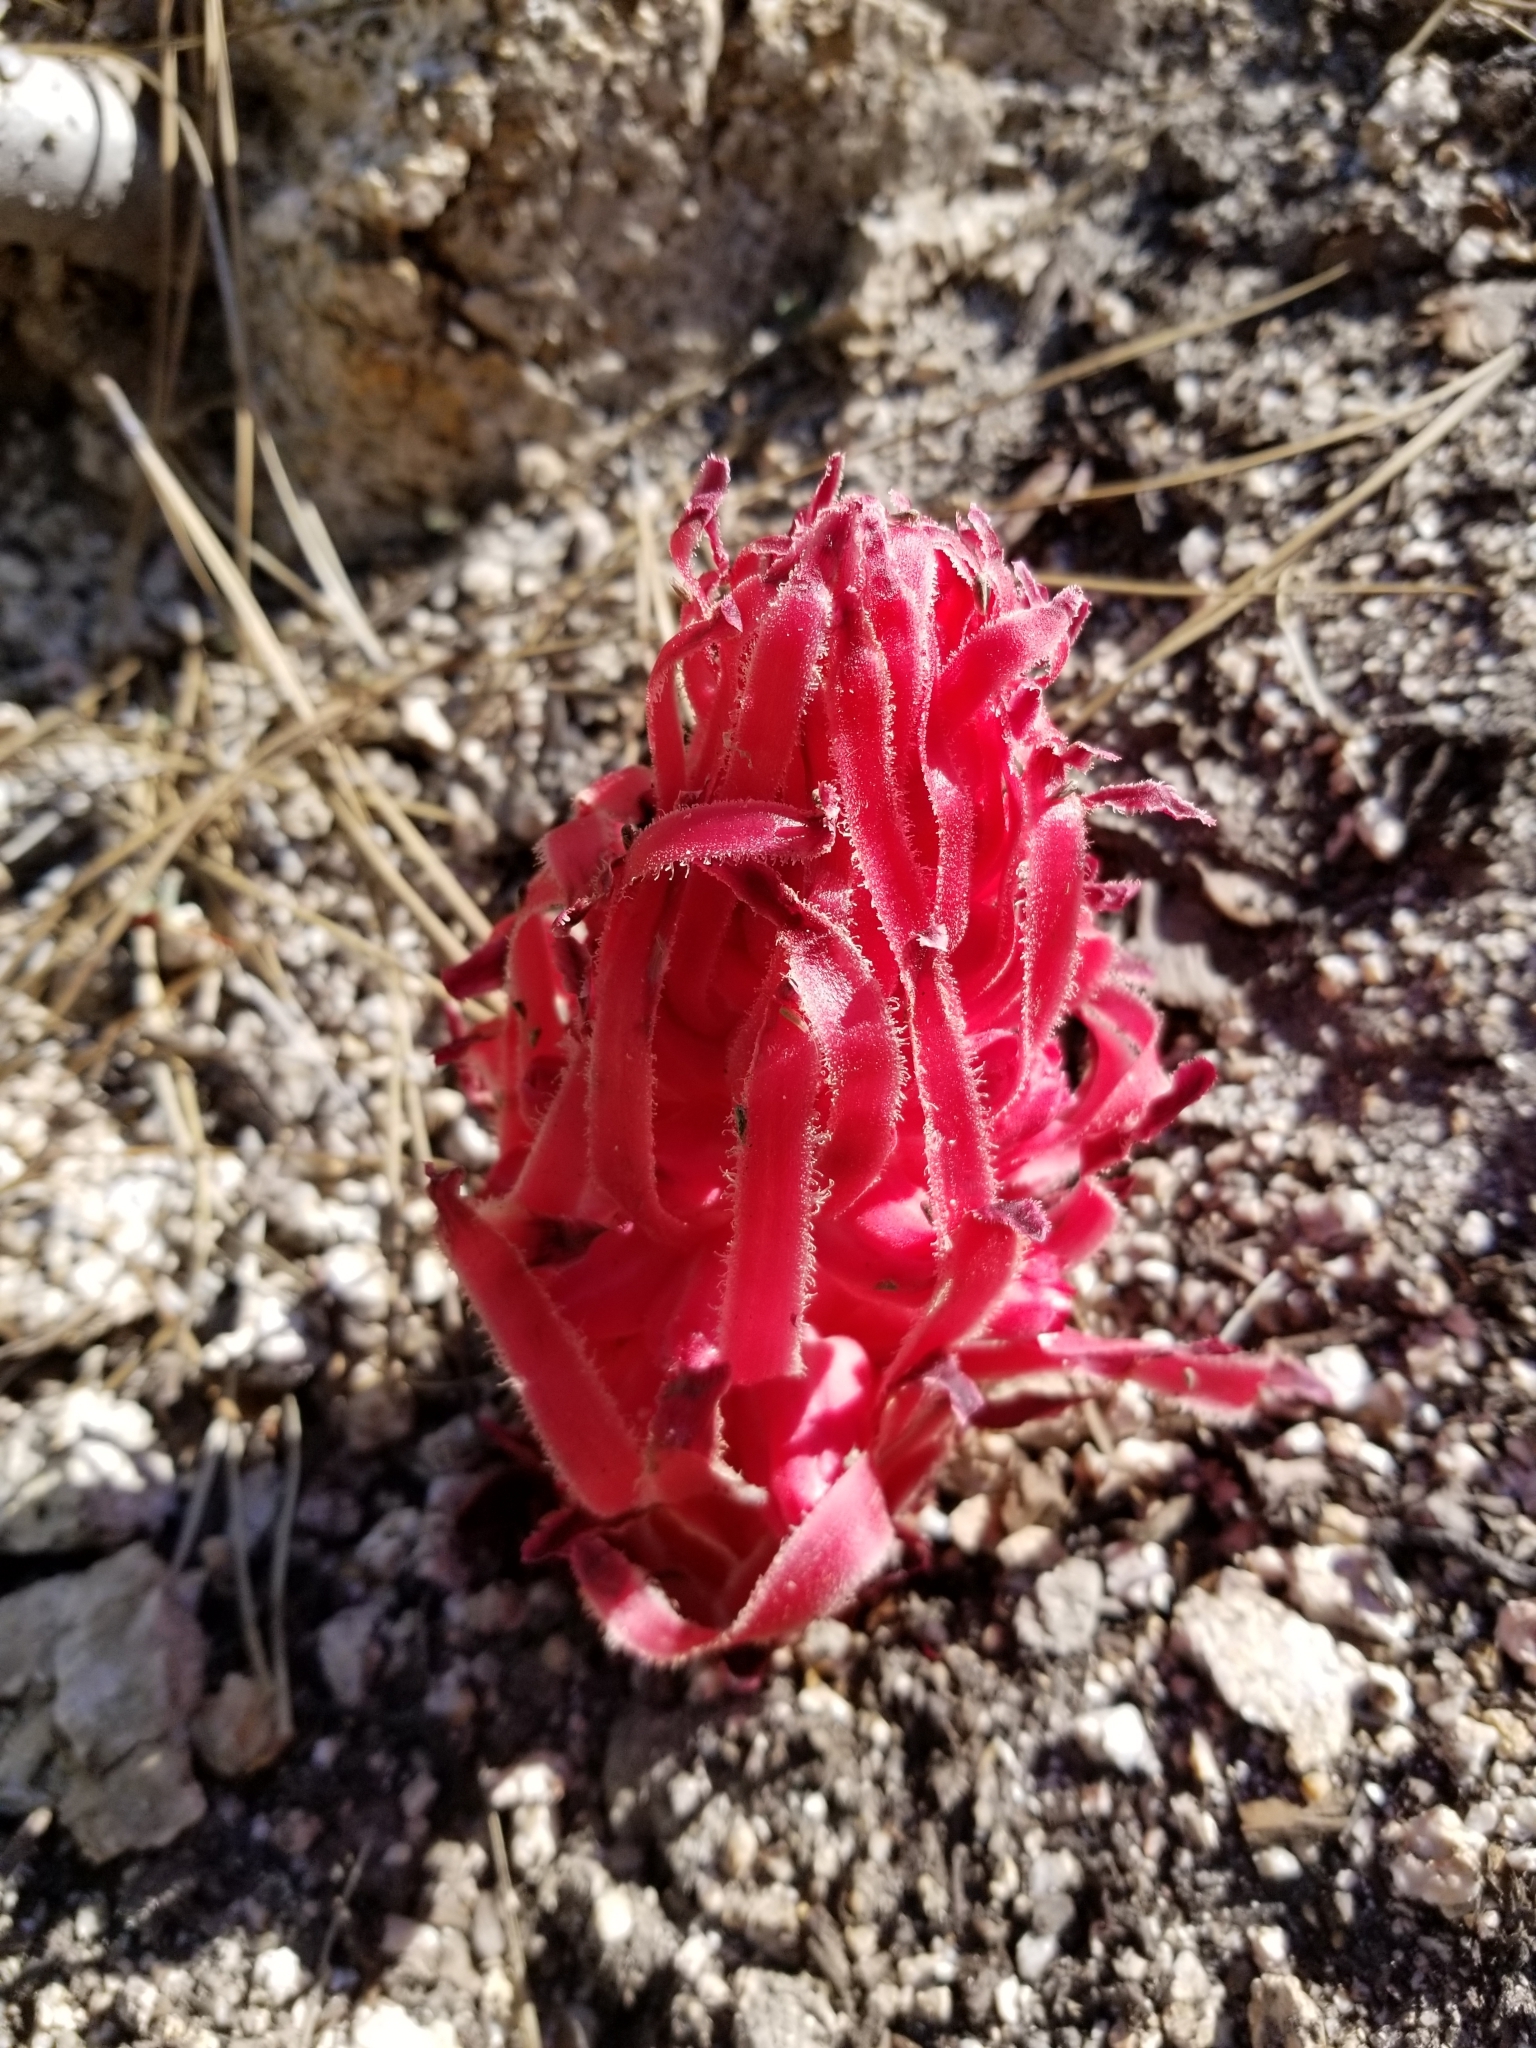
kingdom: Plantae
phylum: Tracheophyta
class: Magnoliopsida
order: Ericales
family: Ericaceae
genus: Sarcodes
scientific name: Sarcodes sanguinea
